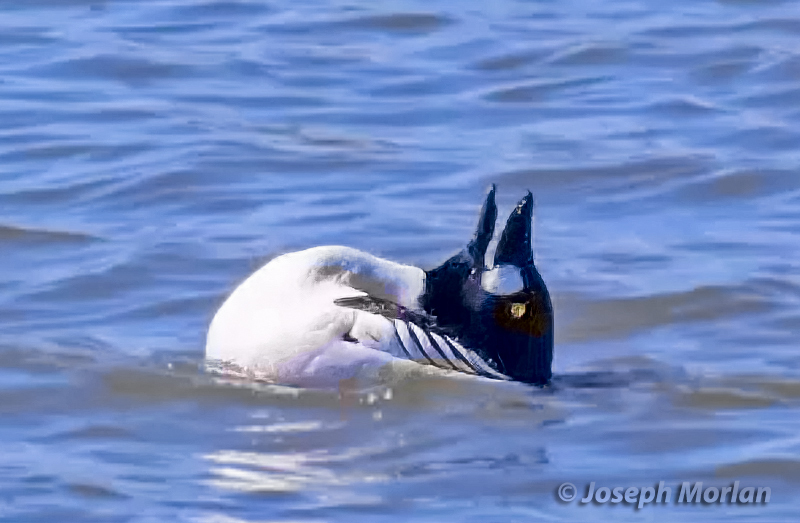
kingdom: Animalia
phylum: Chordata
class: Aves
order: Anseriformes
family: Anatidae
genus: Bucephala
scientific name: Bucephala clangula
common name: Common goldeneye
